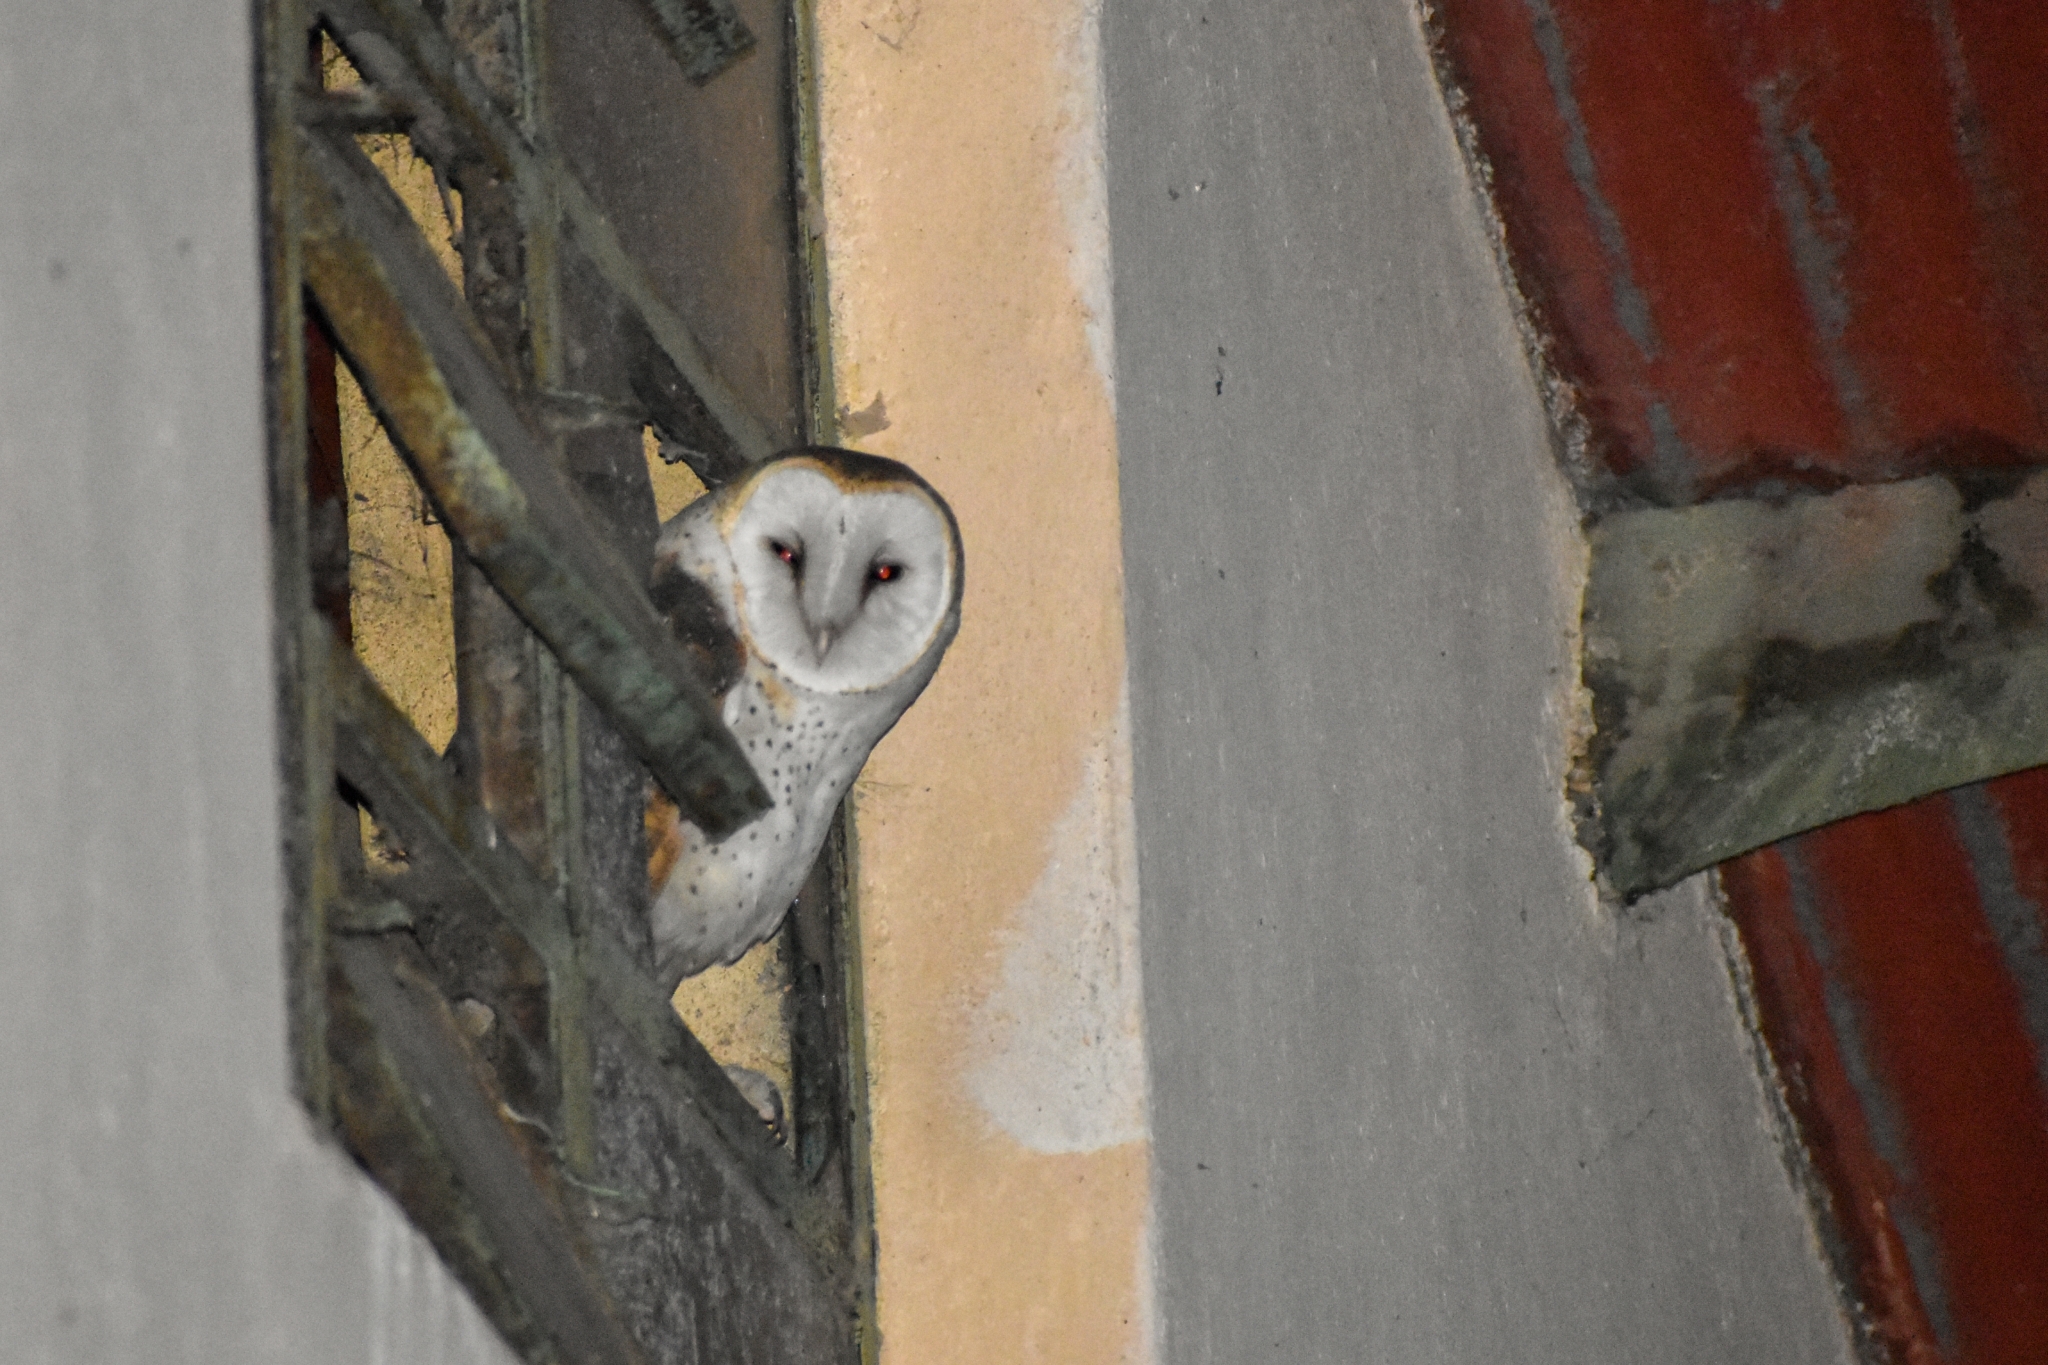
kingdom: Animalia
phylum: Chordata
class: Aves
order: Strigiformes
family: Tytonidae
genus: Tyto
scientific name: Tyto furcata
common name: American barn owl
